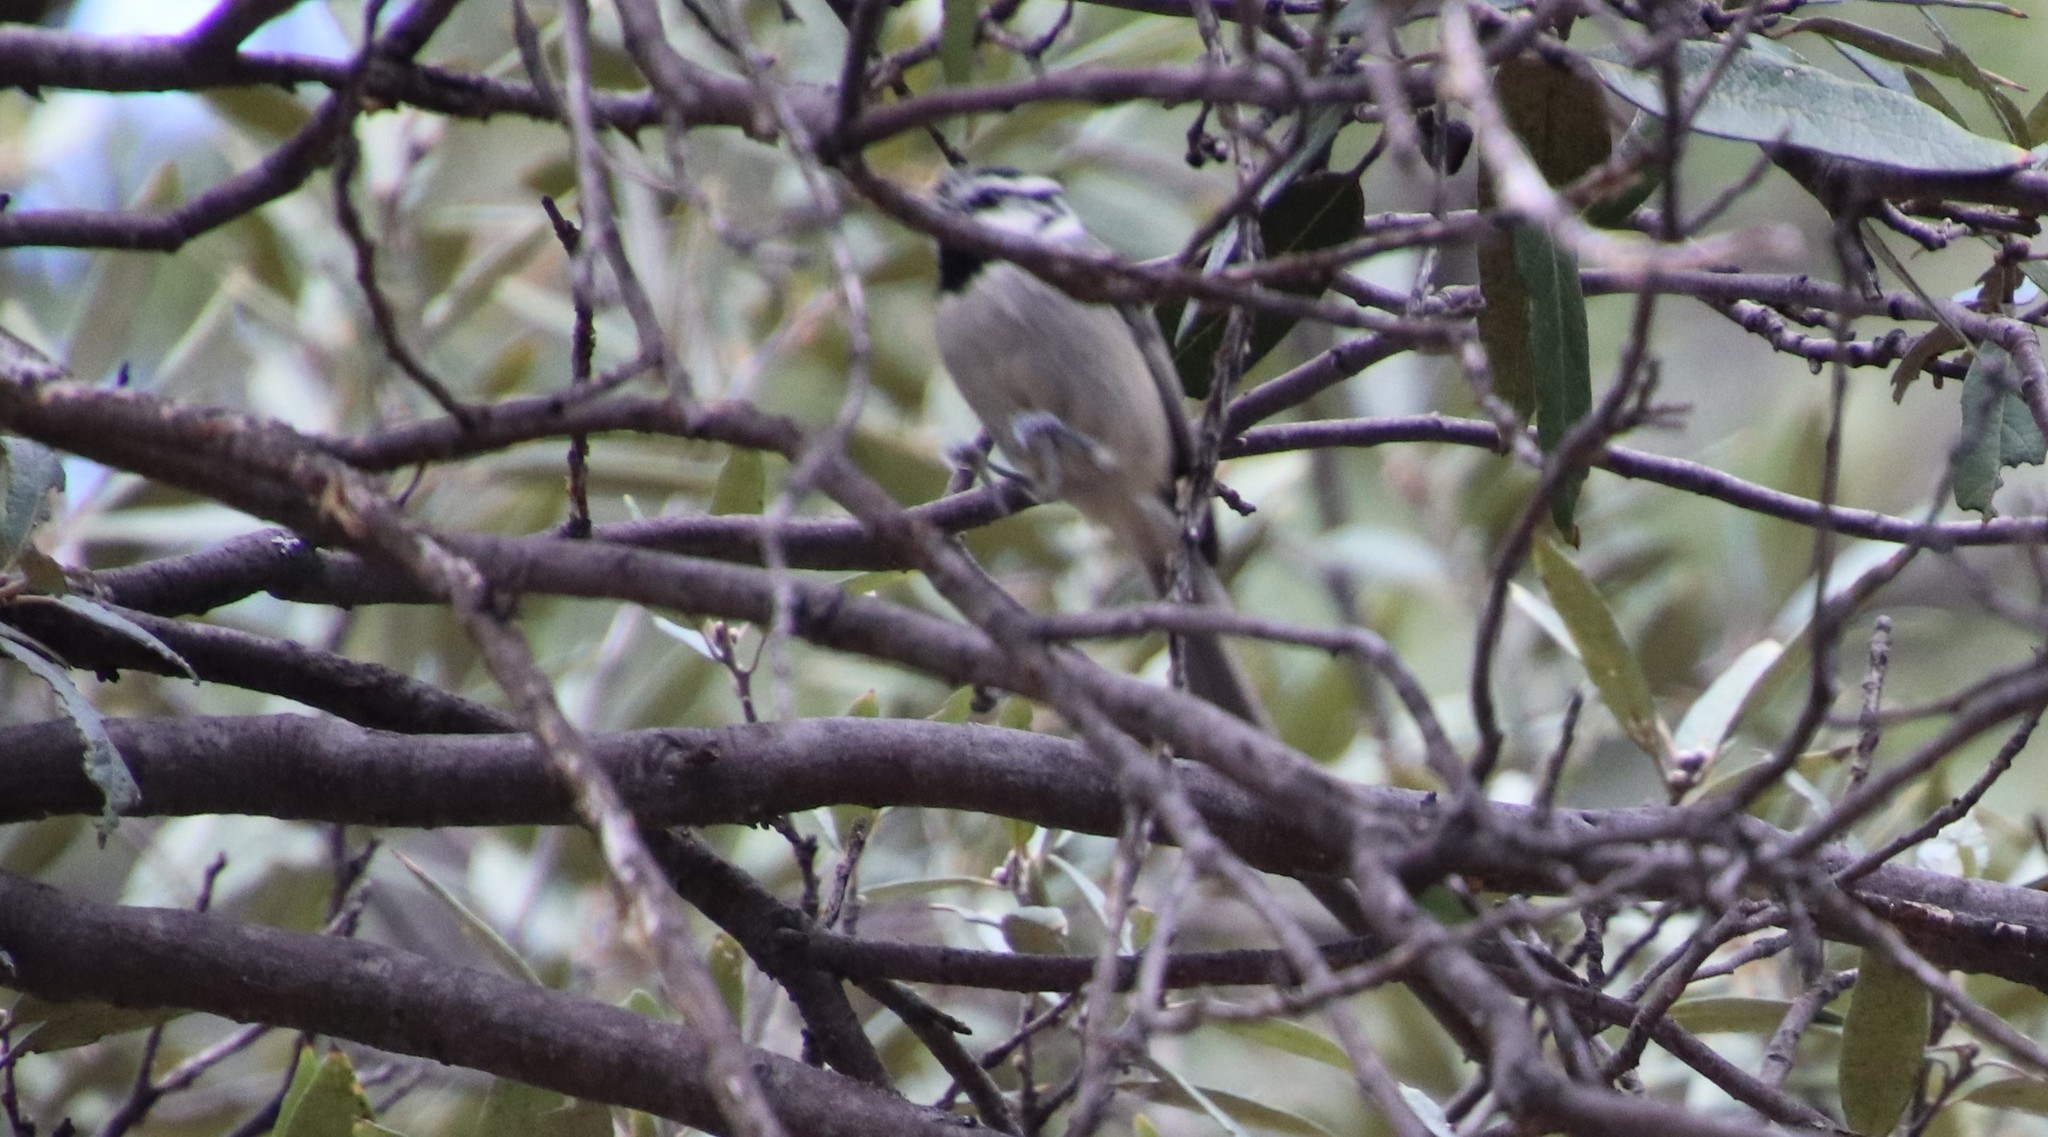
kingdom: Animalia
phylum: Chordata
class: Aves
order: Passeriformes
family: Paridae
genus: Baeolophus
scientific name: Baeolophus wollweberi
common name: Bridled titmouse
